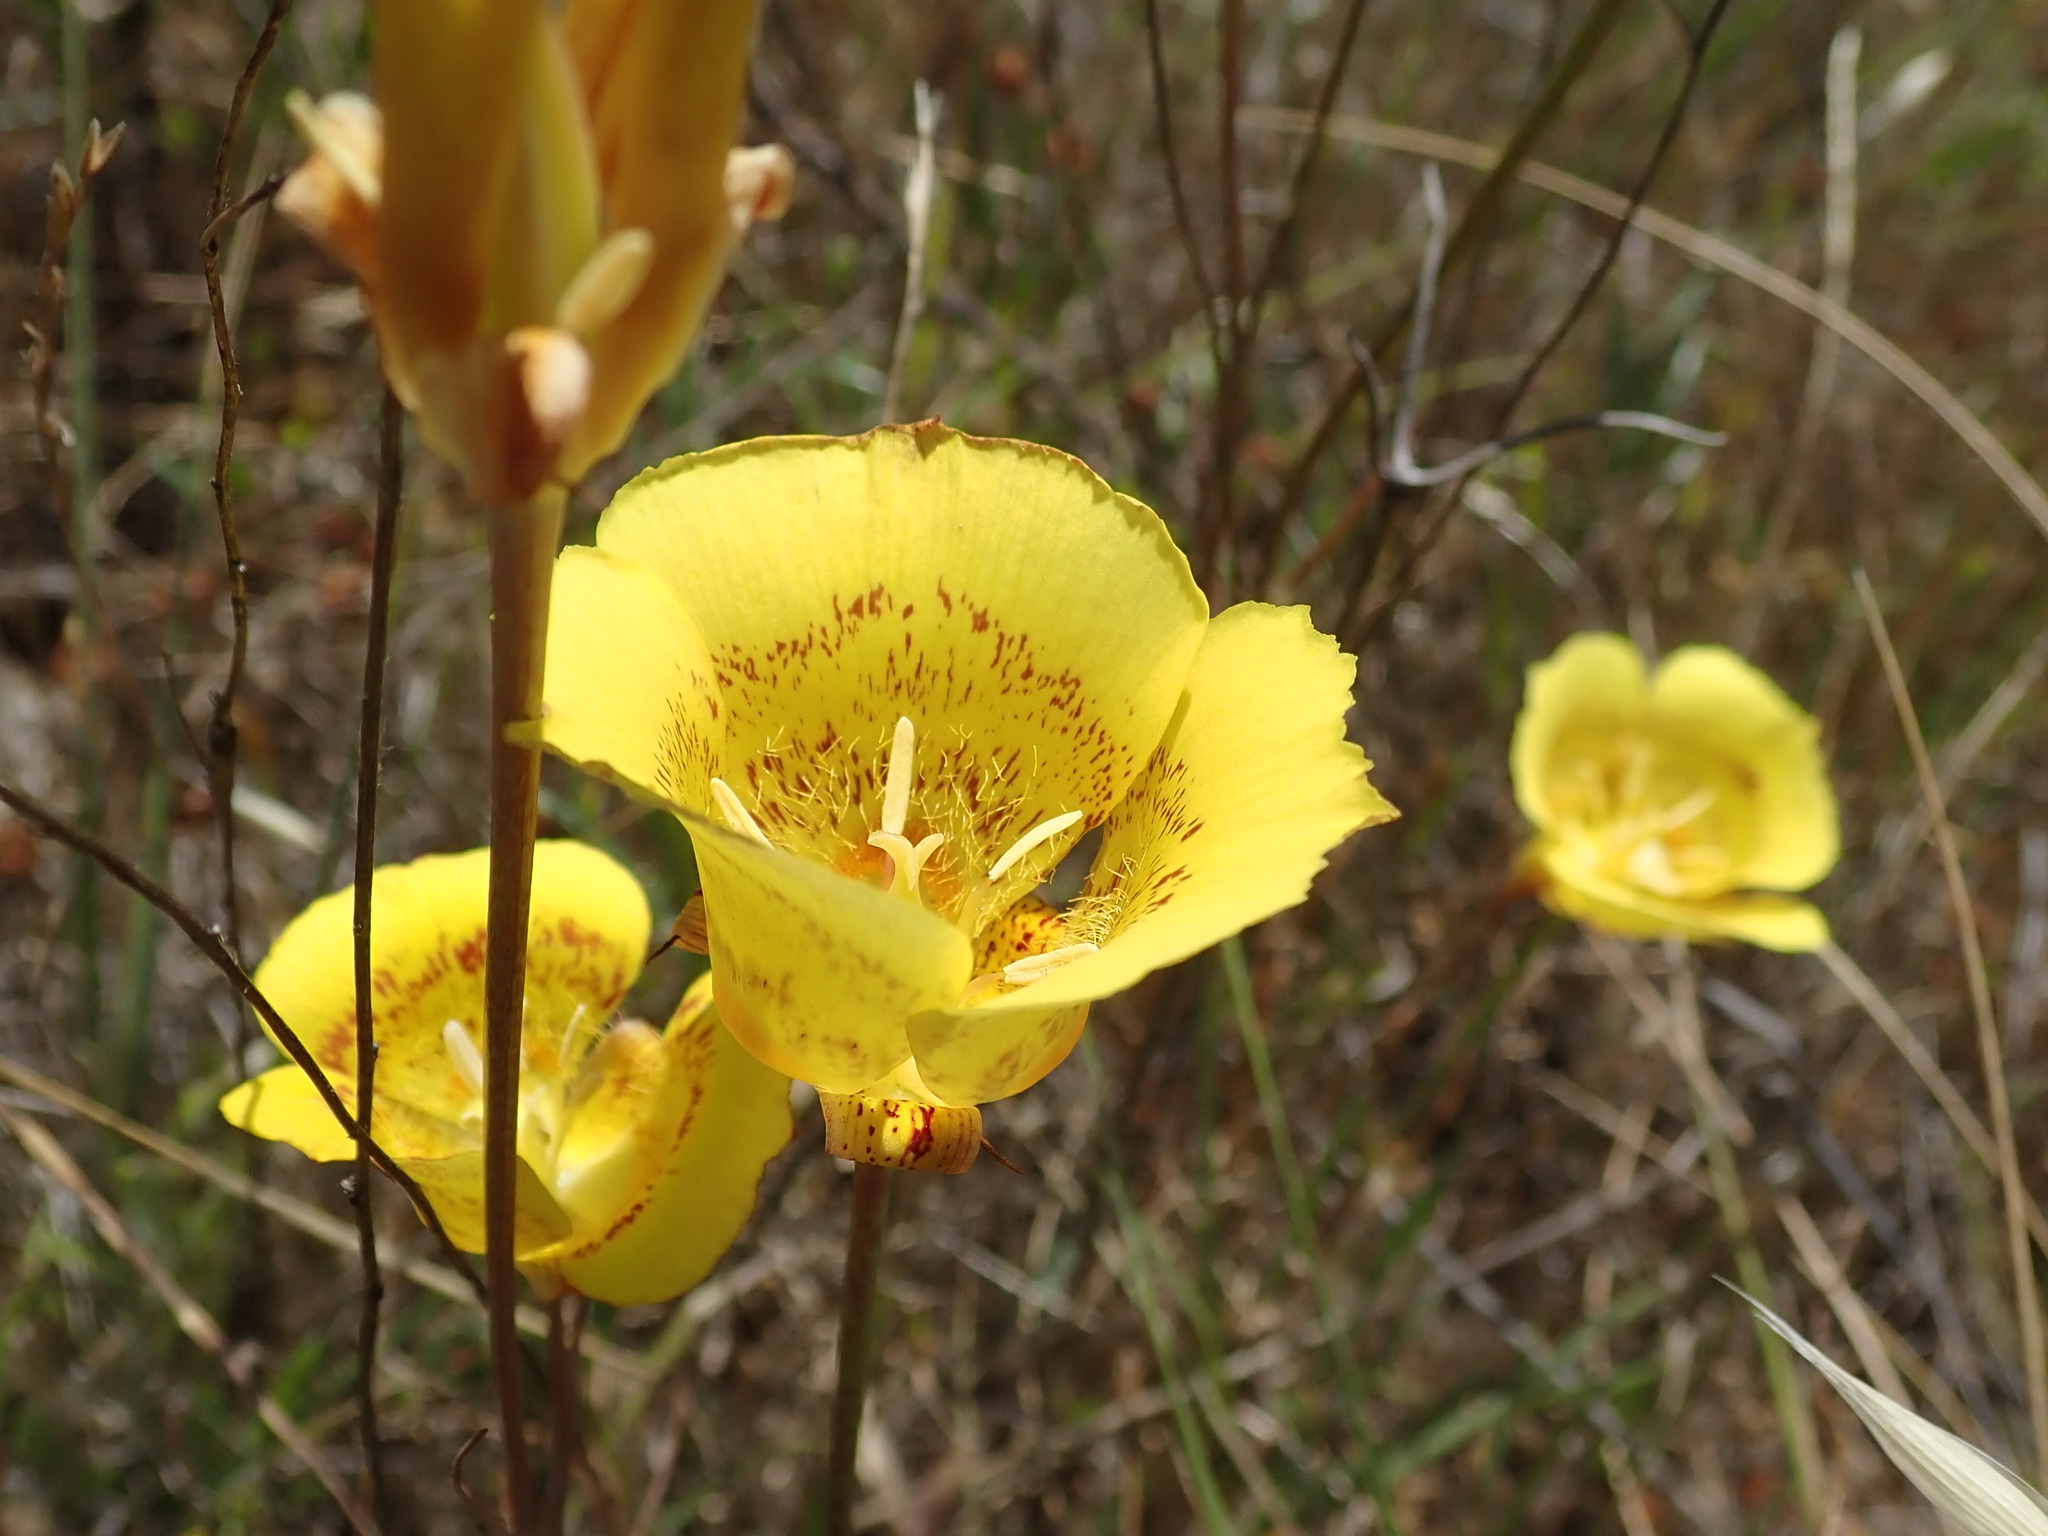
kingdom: Plantae
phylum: Tracheophyta
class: Liliopsida
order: Liliales
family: Liliaceae
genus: Calochortus
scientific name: Calochortus luteus
